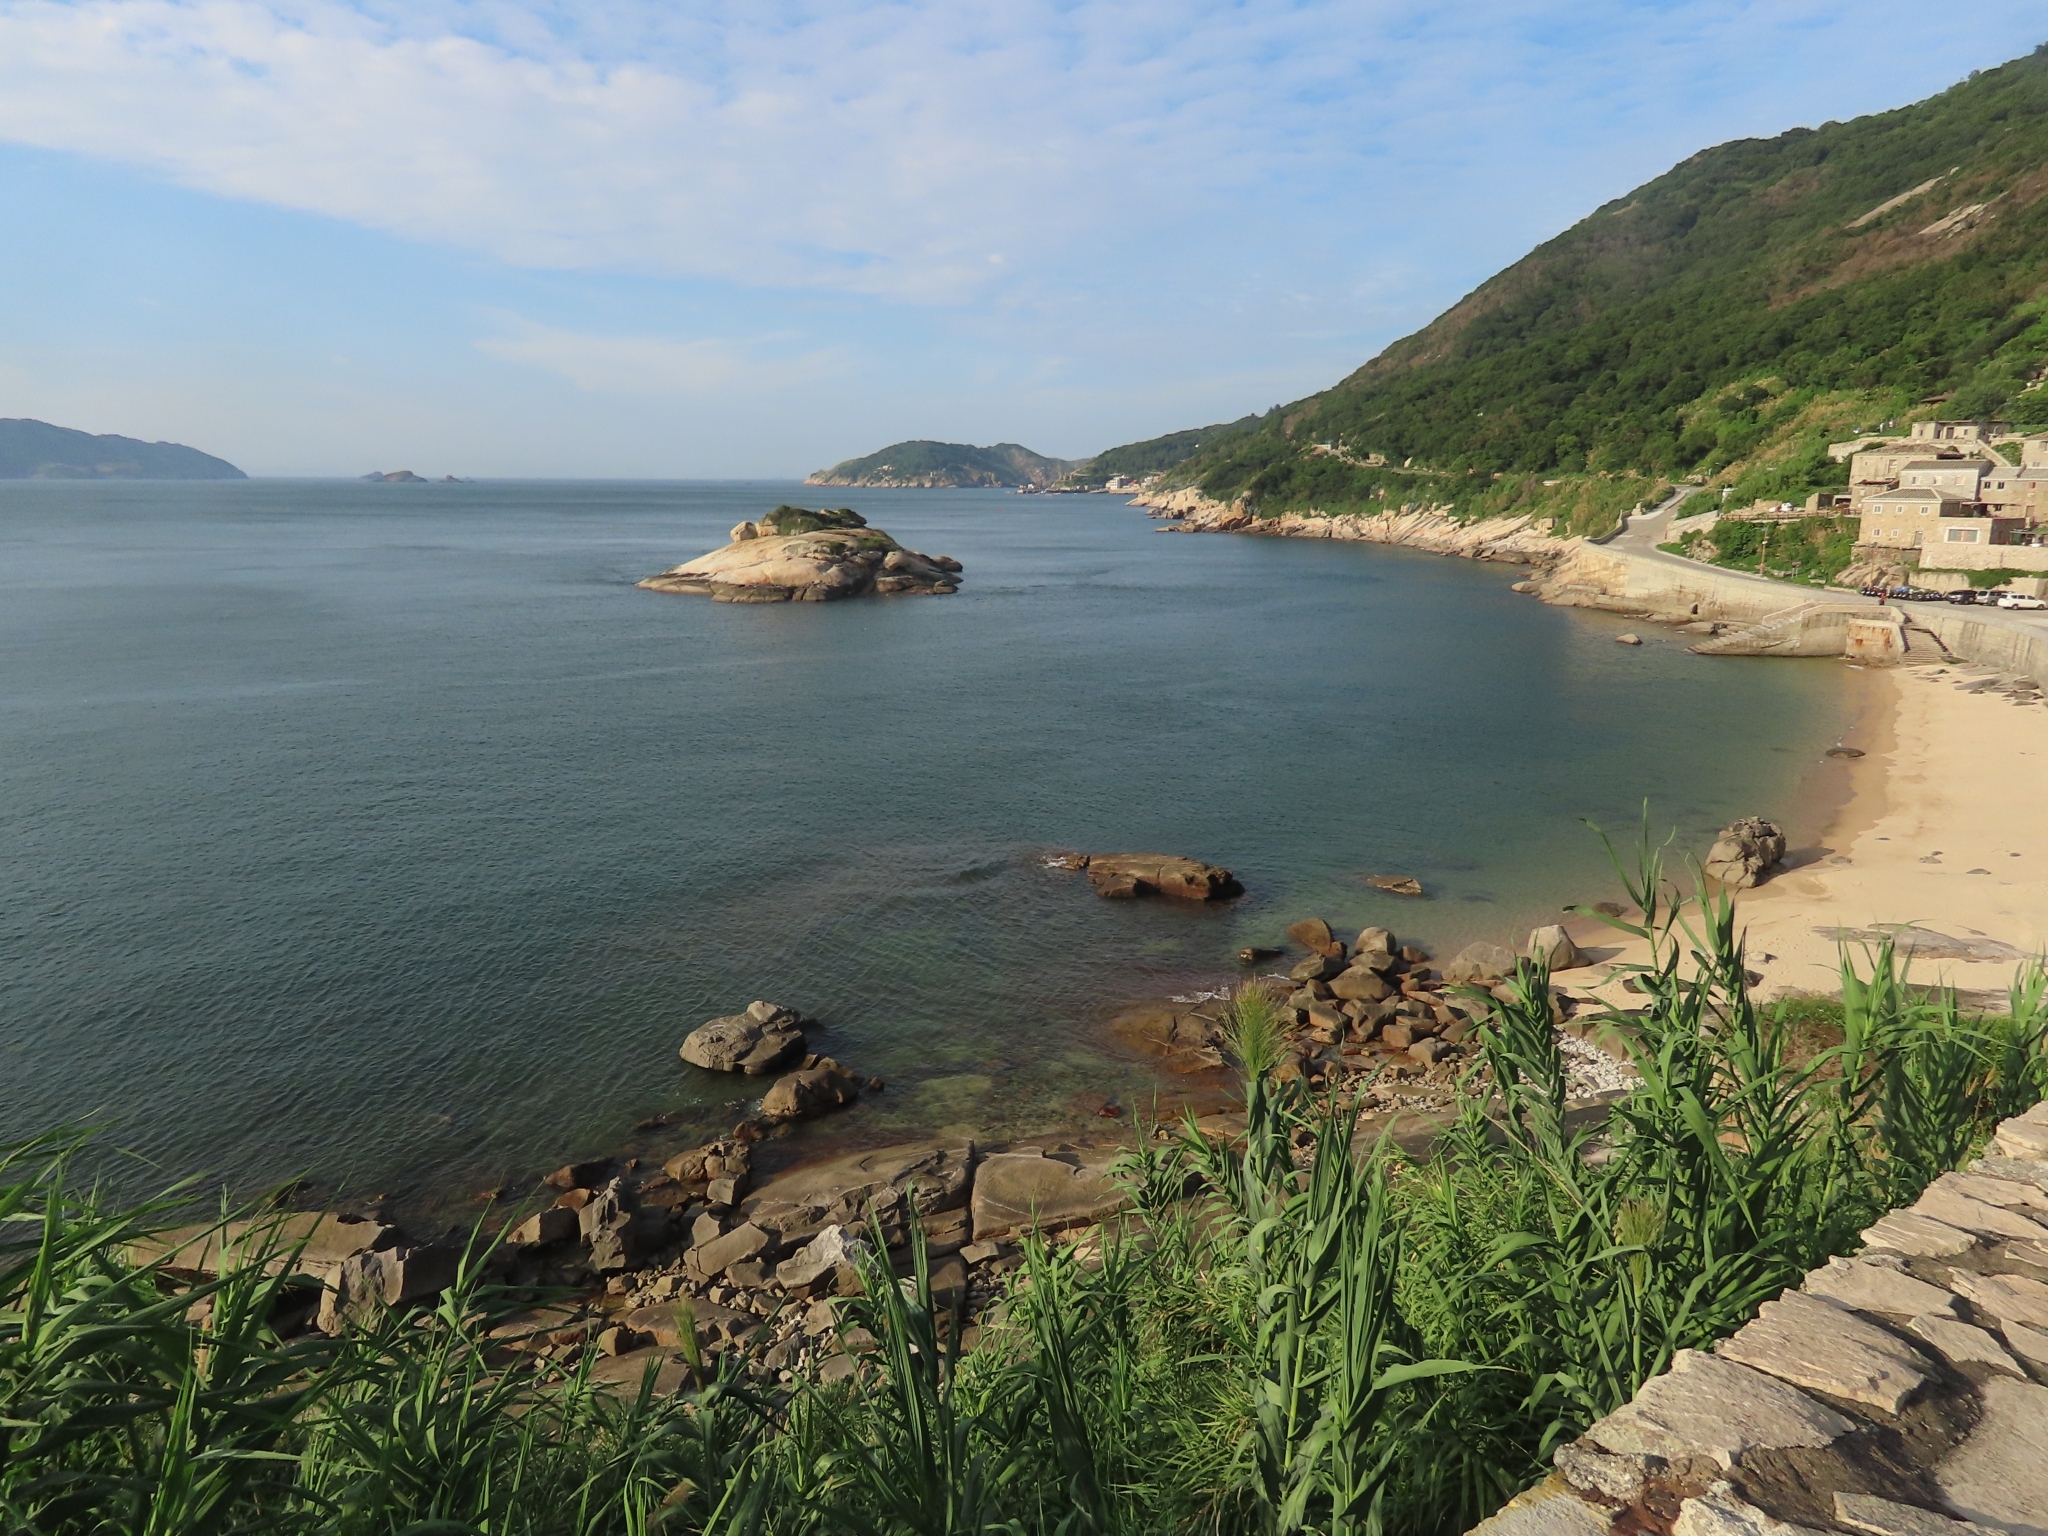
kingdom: Plantae
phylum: Tracheophyta
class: Liliopsida
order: Poales
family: Poaceae
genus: Arundo
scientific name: Arundo donax
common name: Giant reed
